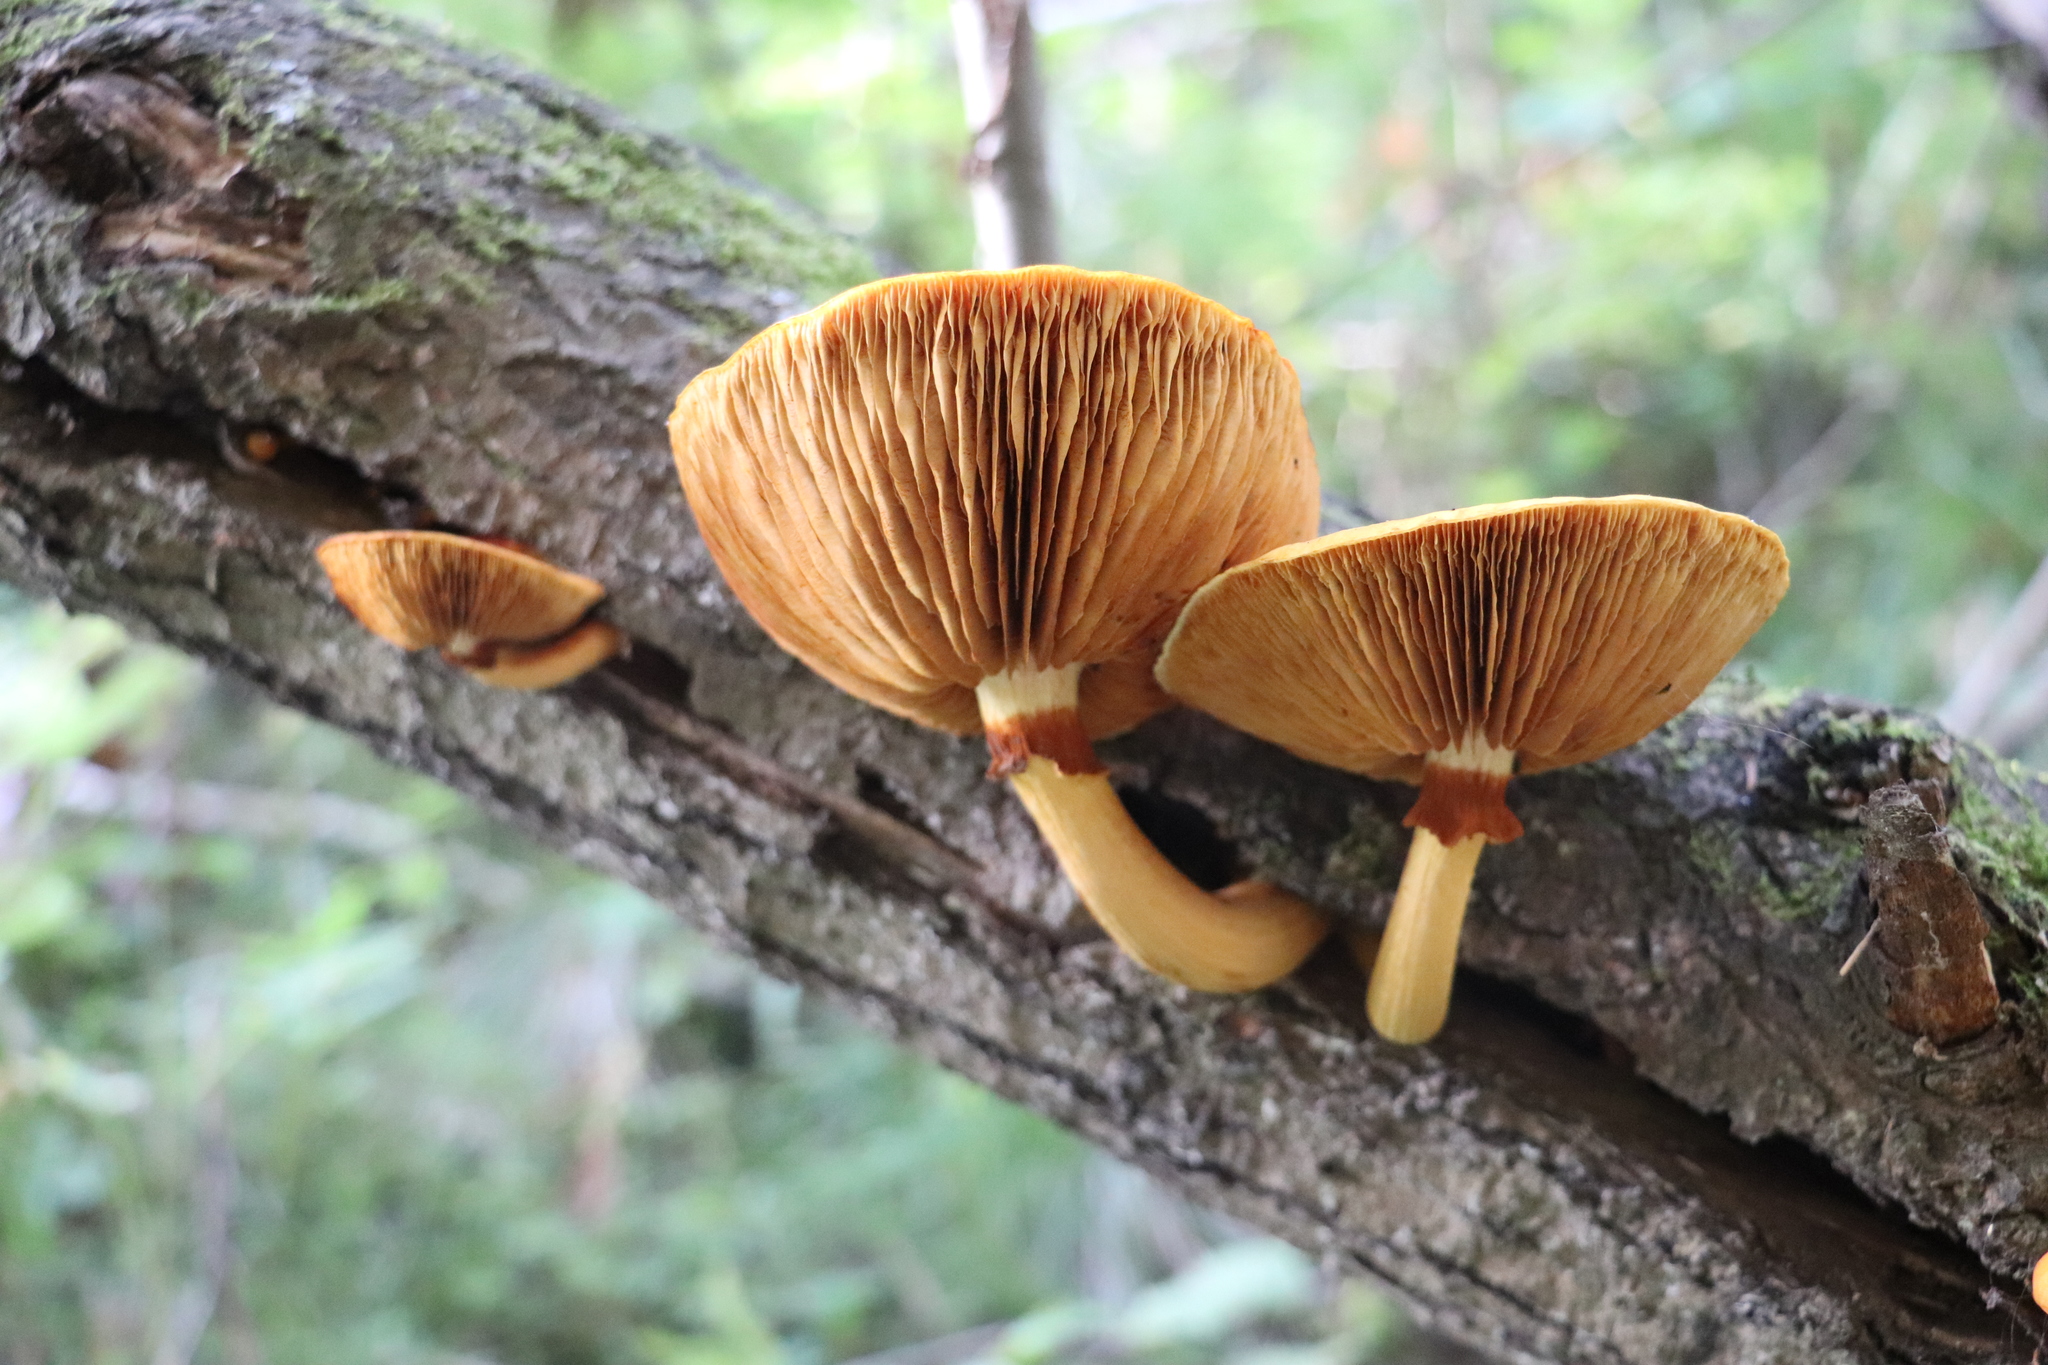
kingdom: Fungi
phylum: Basidiomycota
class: Agaricomycetes
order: Agaricales
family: Hymenogastraceae
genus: Gymnopilus
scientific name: Gymnopilus junonius
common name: Spectacular rustgill
